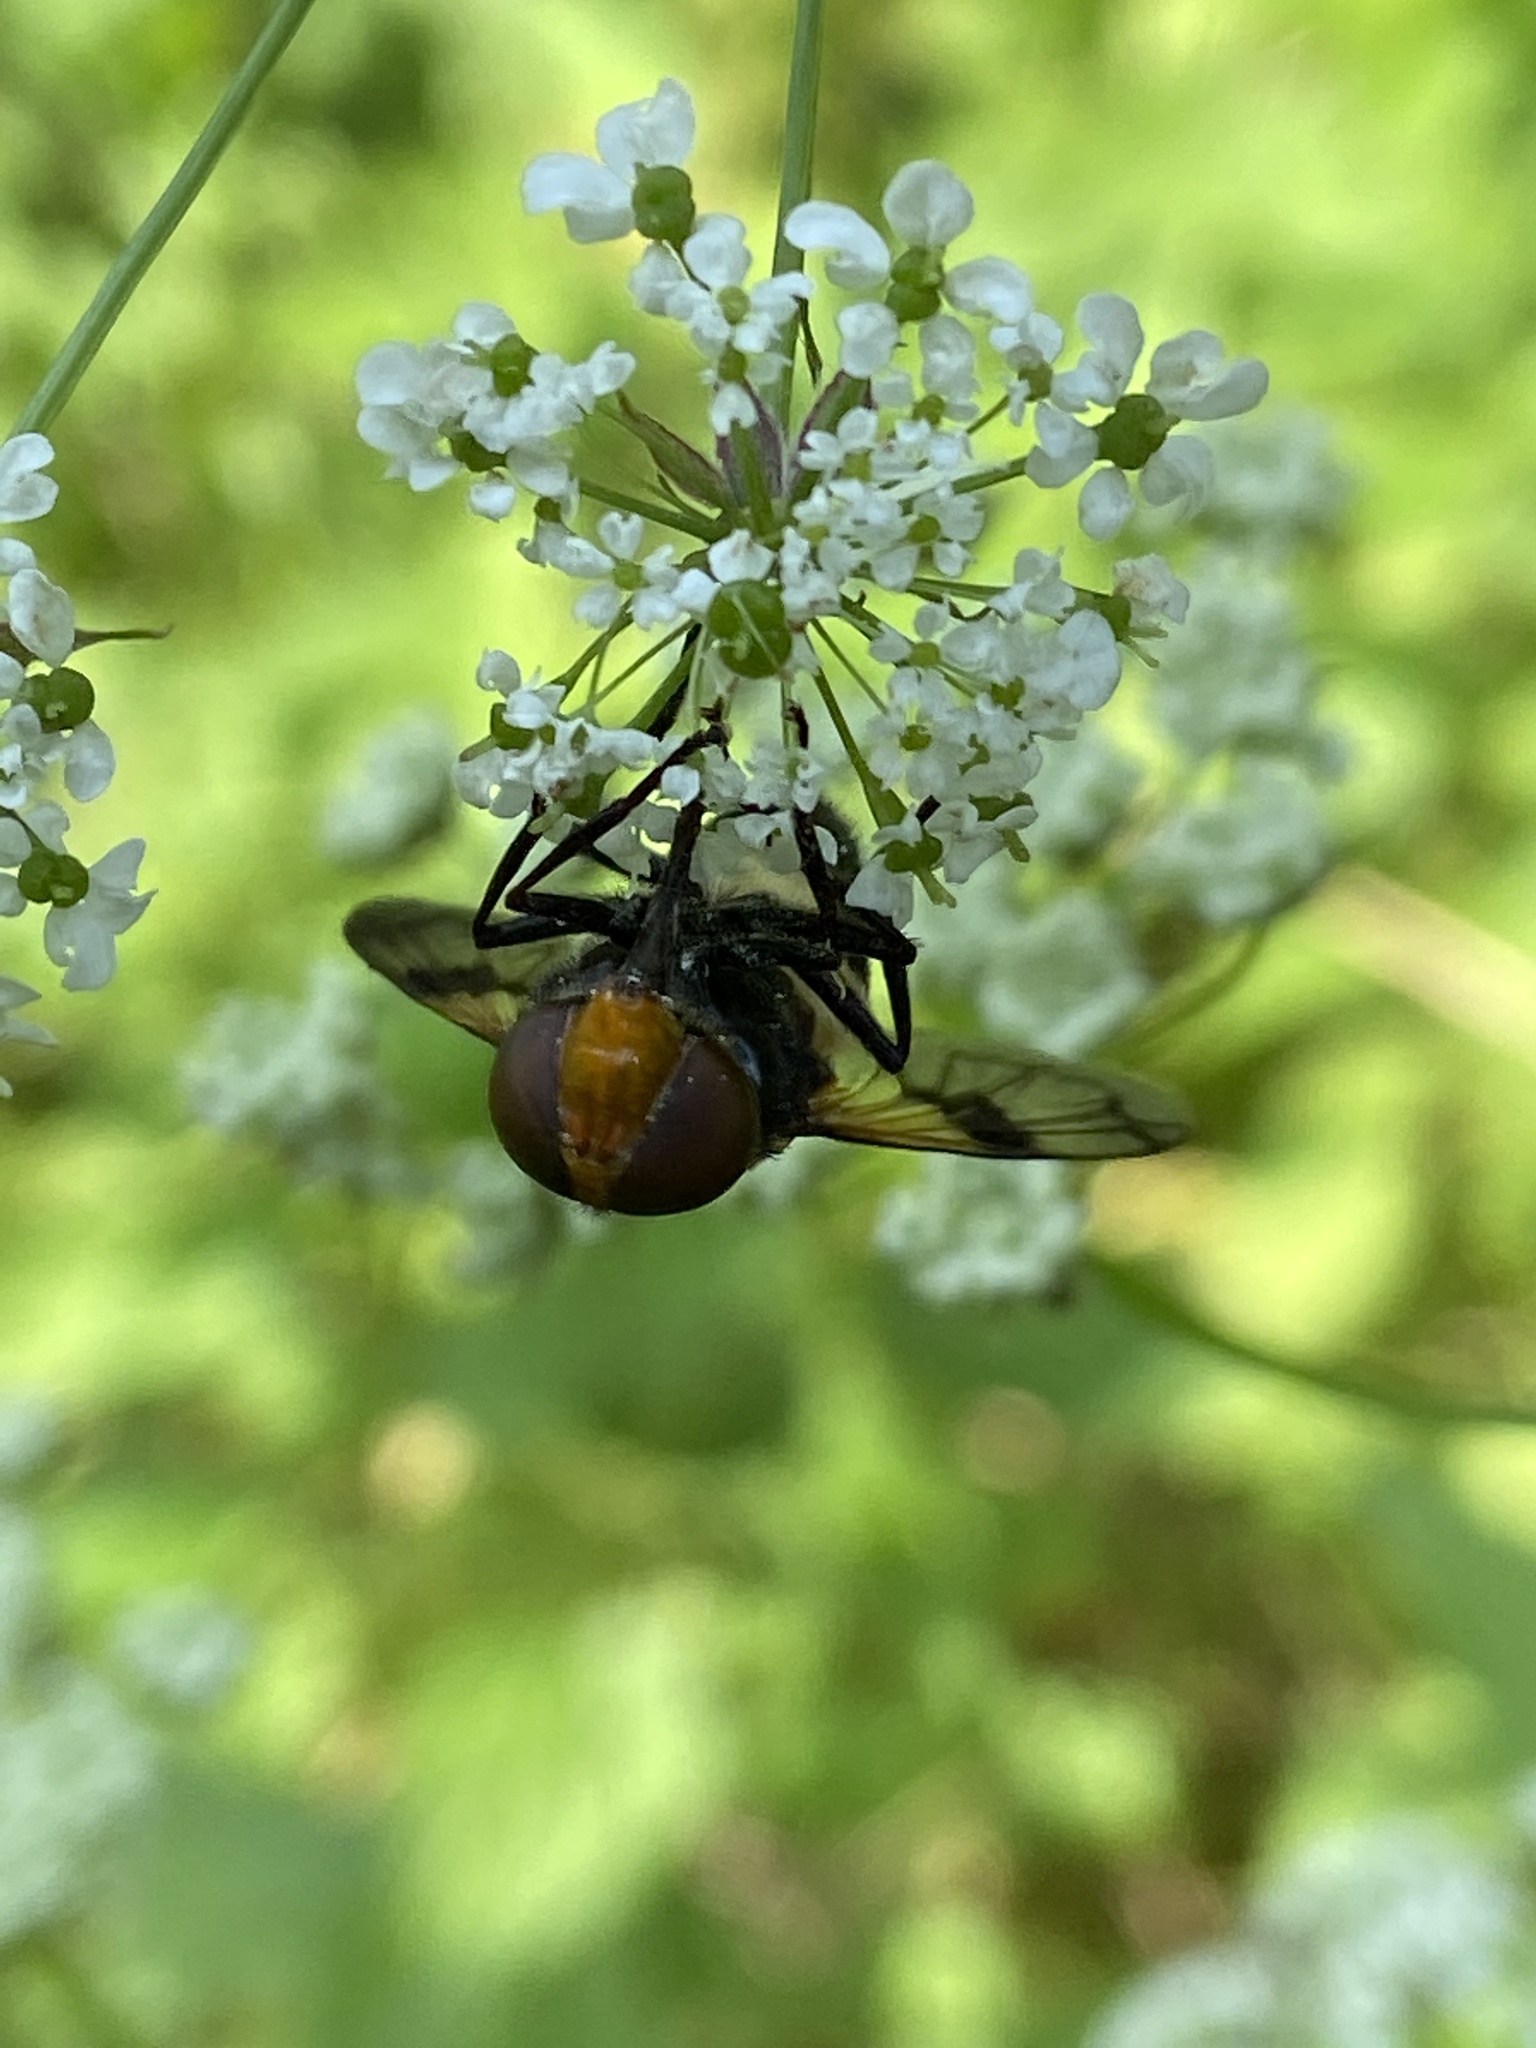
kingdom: Animalia
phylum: Arthropoda
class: Insecta
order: Diptera
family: Syrphidae
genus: Volucella
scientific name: Volucella pellucens
